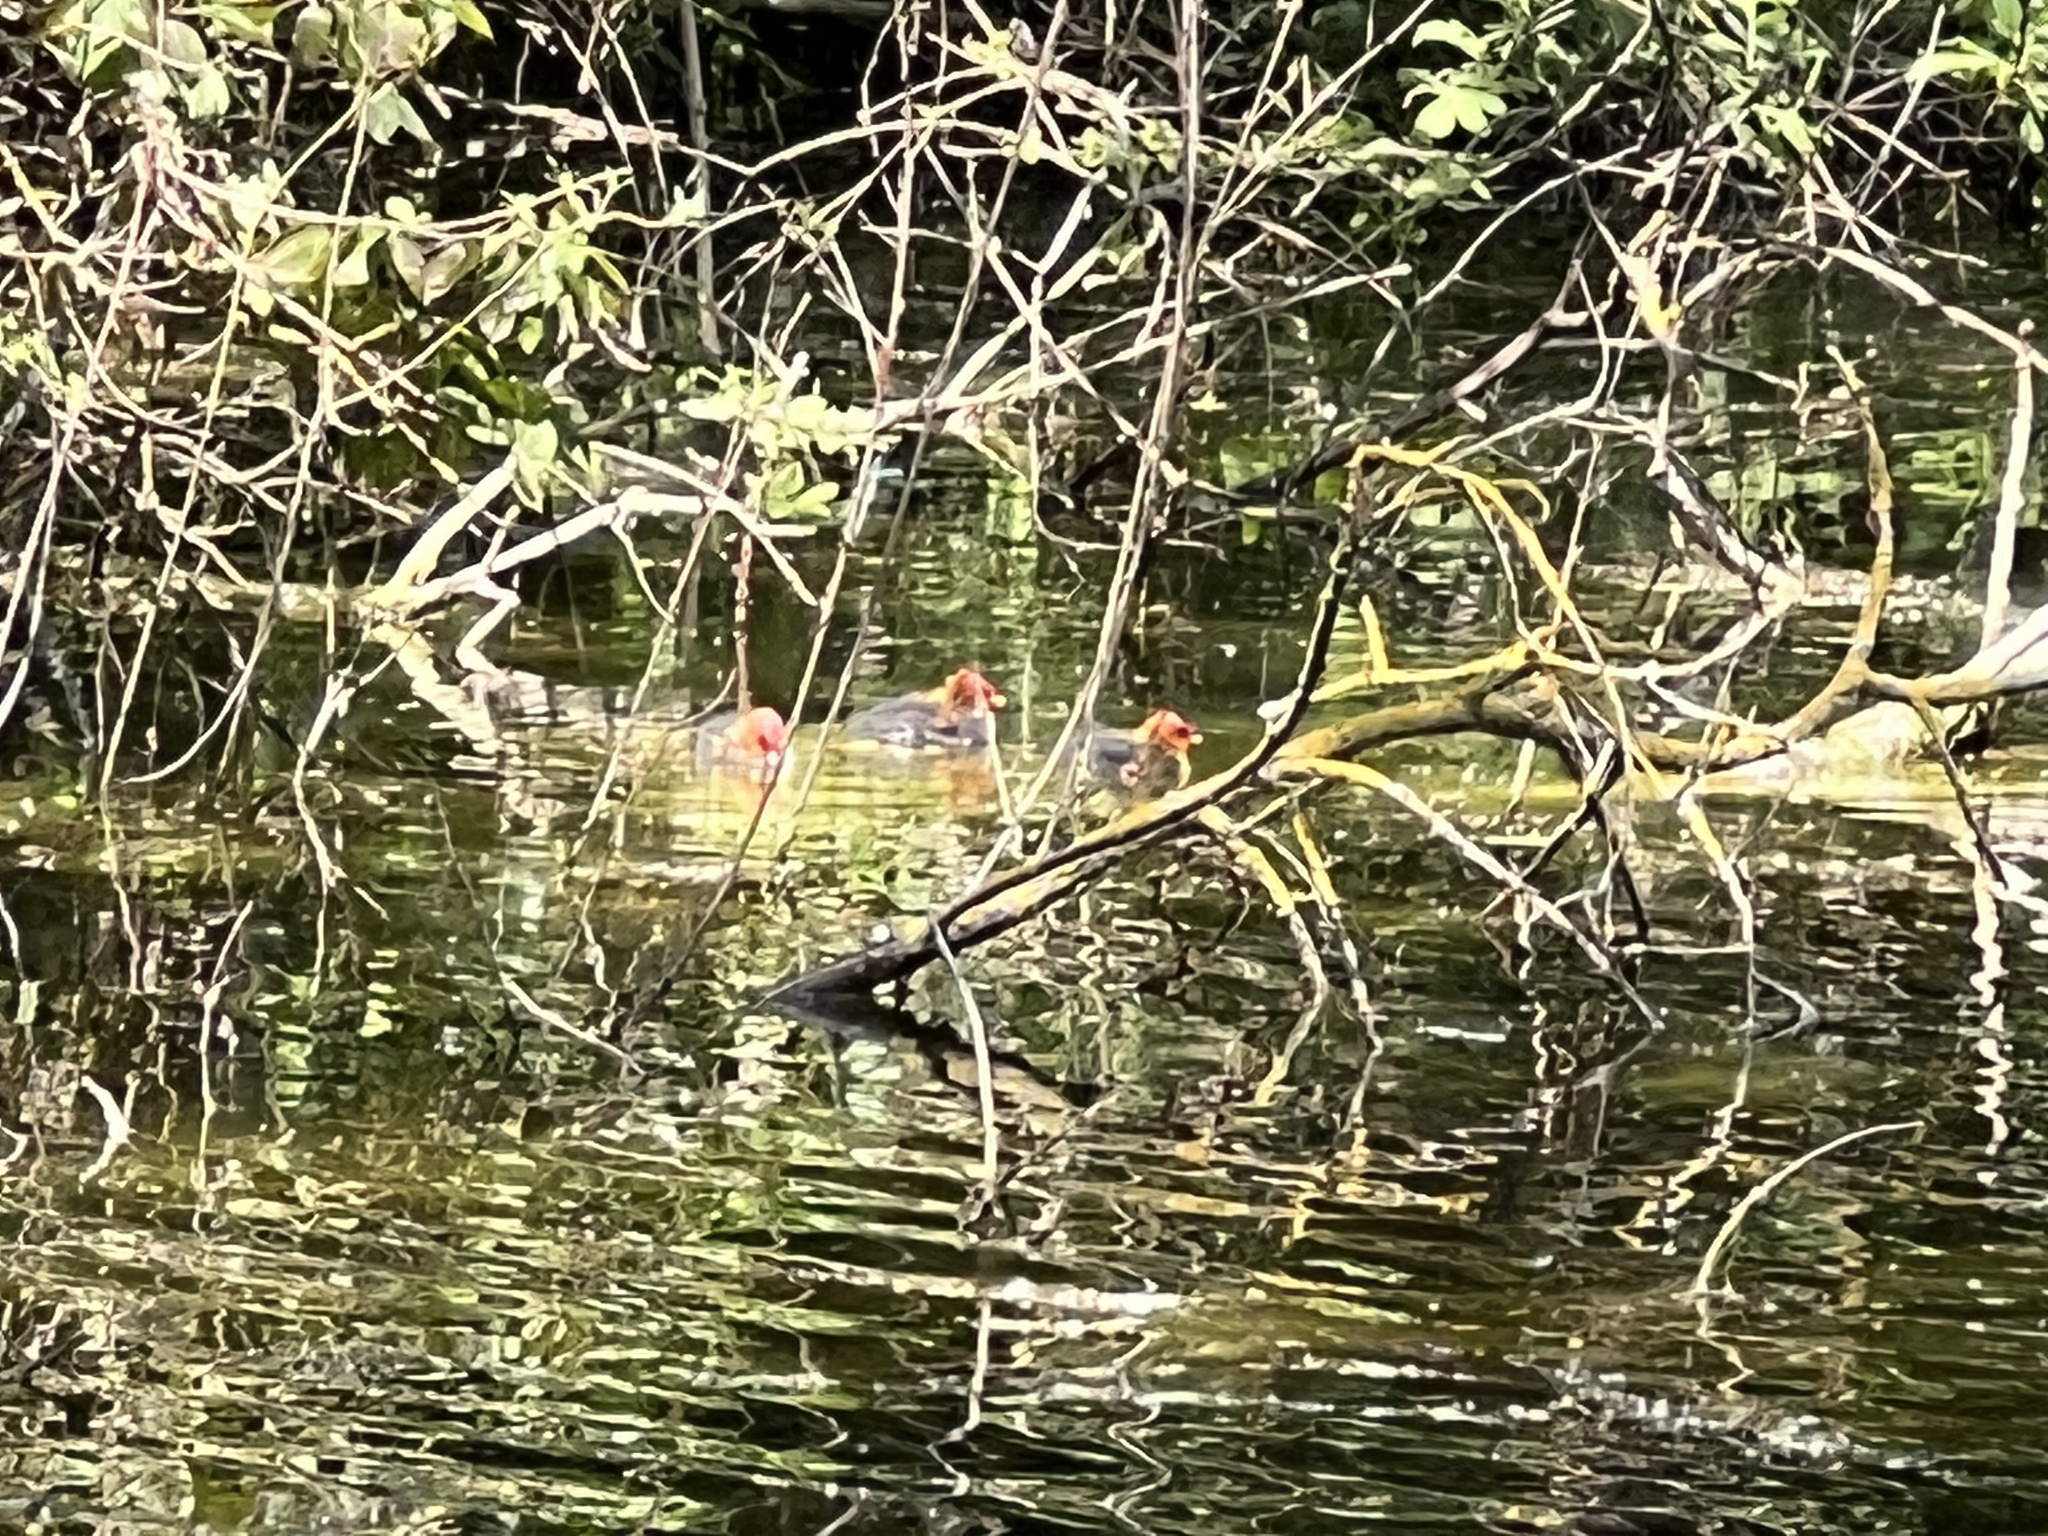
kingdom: Animalia
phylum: Chordata
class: Aves
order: Gruiformes
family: Rallidae
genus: Fulica
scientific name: Fulica atra
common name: Eurasian coot
